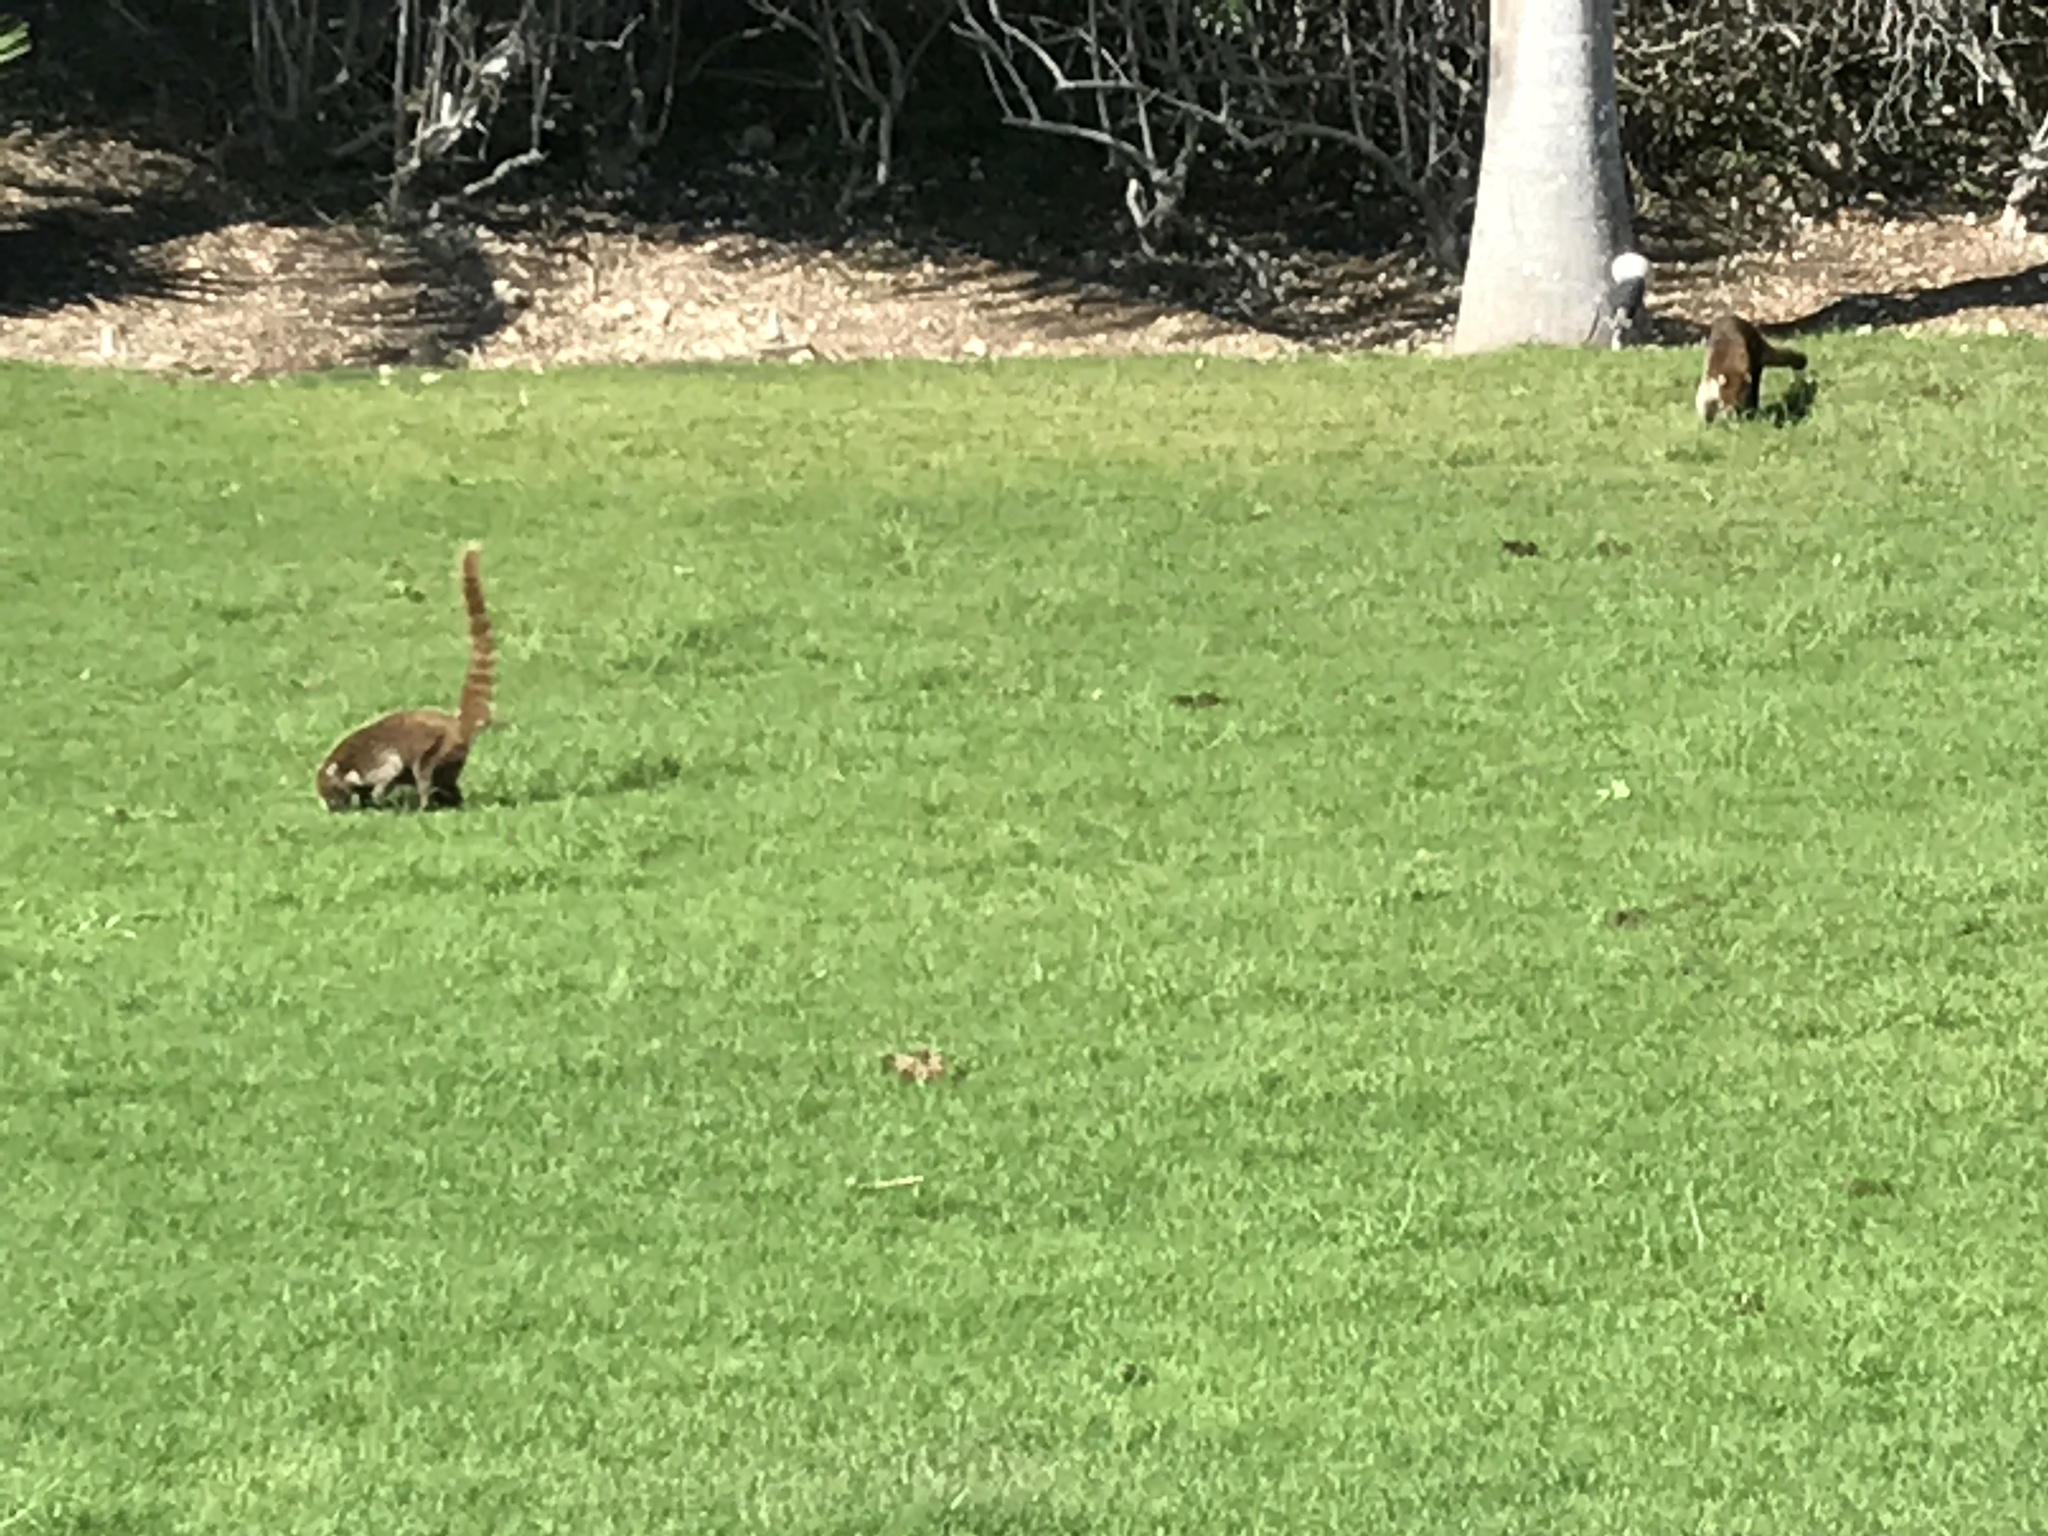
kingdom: Animalia
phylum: Chordata
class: Mammalia
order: Carnivora
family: Procyonidae
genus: Nasua
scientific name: Nasua narica
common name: White-nosed coati
